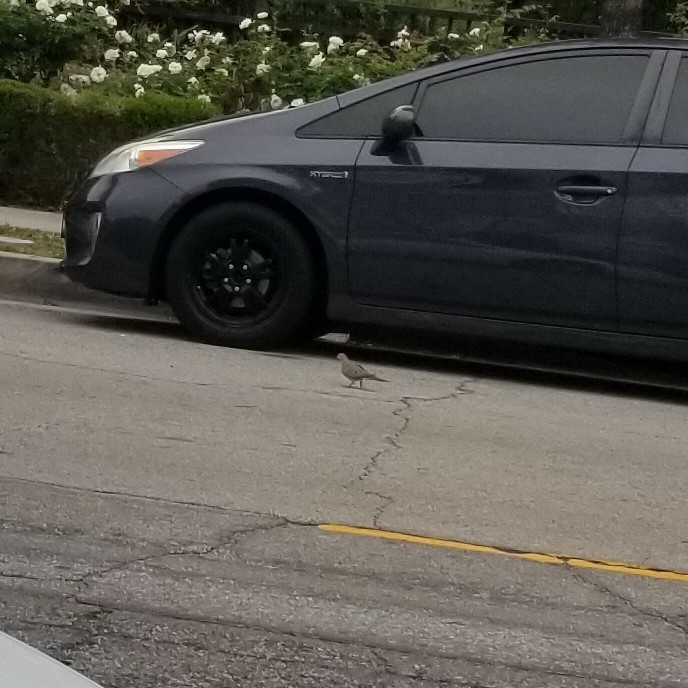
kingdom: Animalia
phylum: Chordata
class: Aves
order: Columbiformes
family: Columbidae
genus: Zenaida
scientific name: Zenaida macroura
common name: Mourning dove
